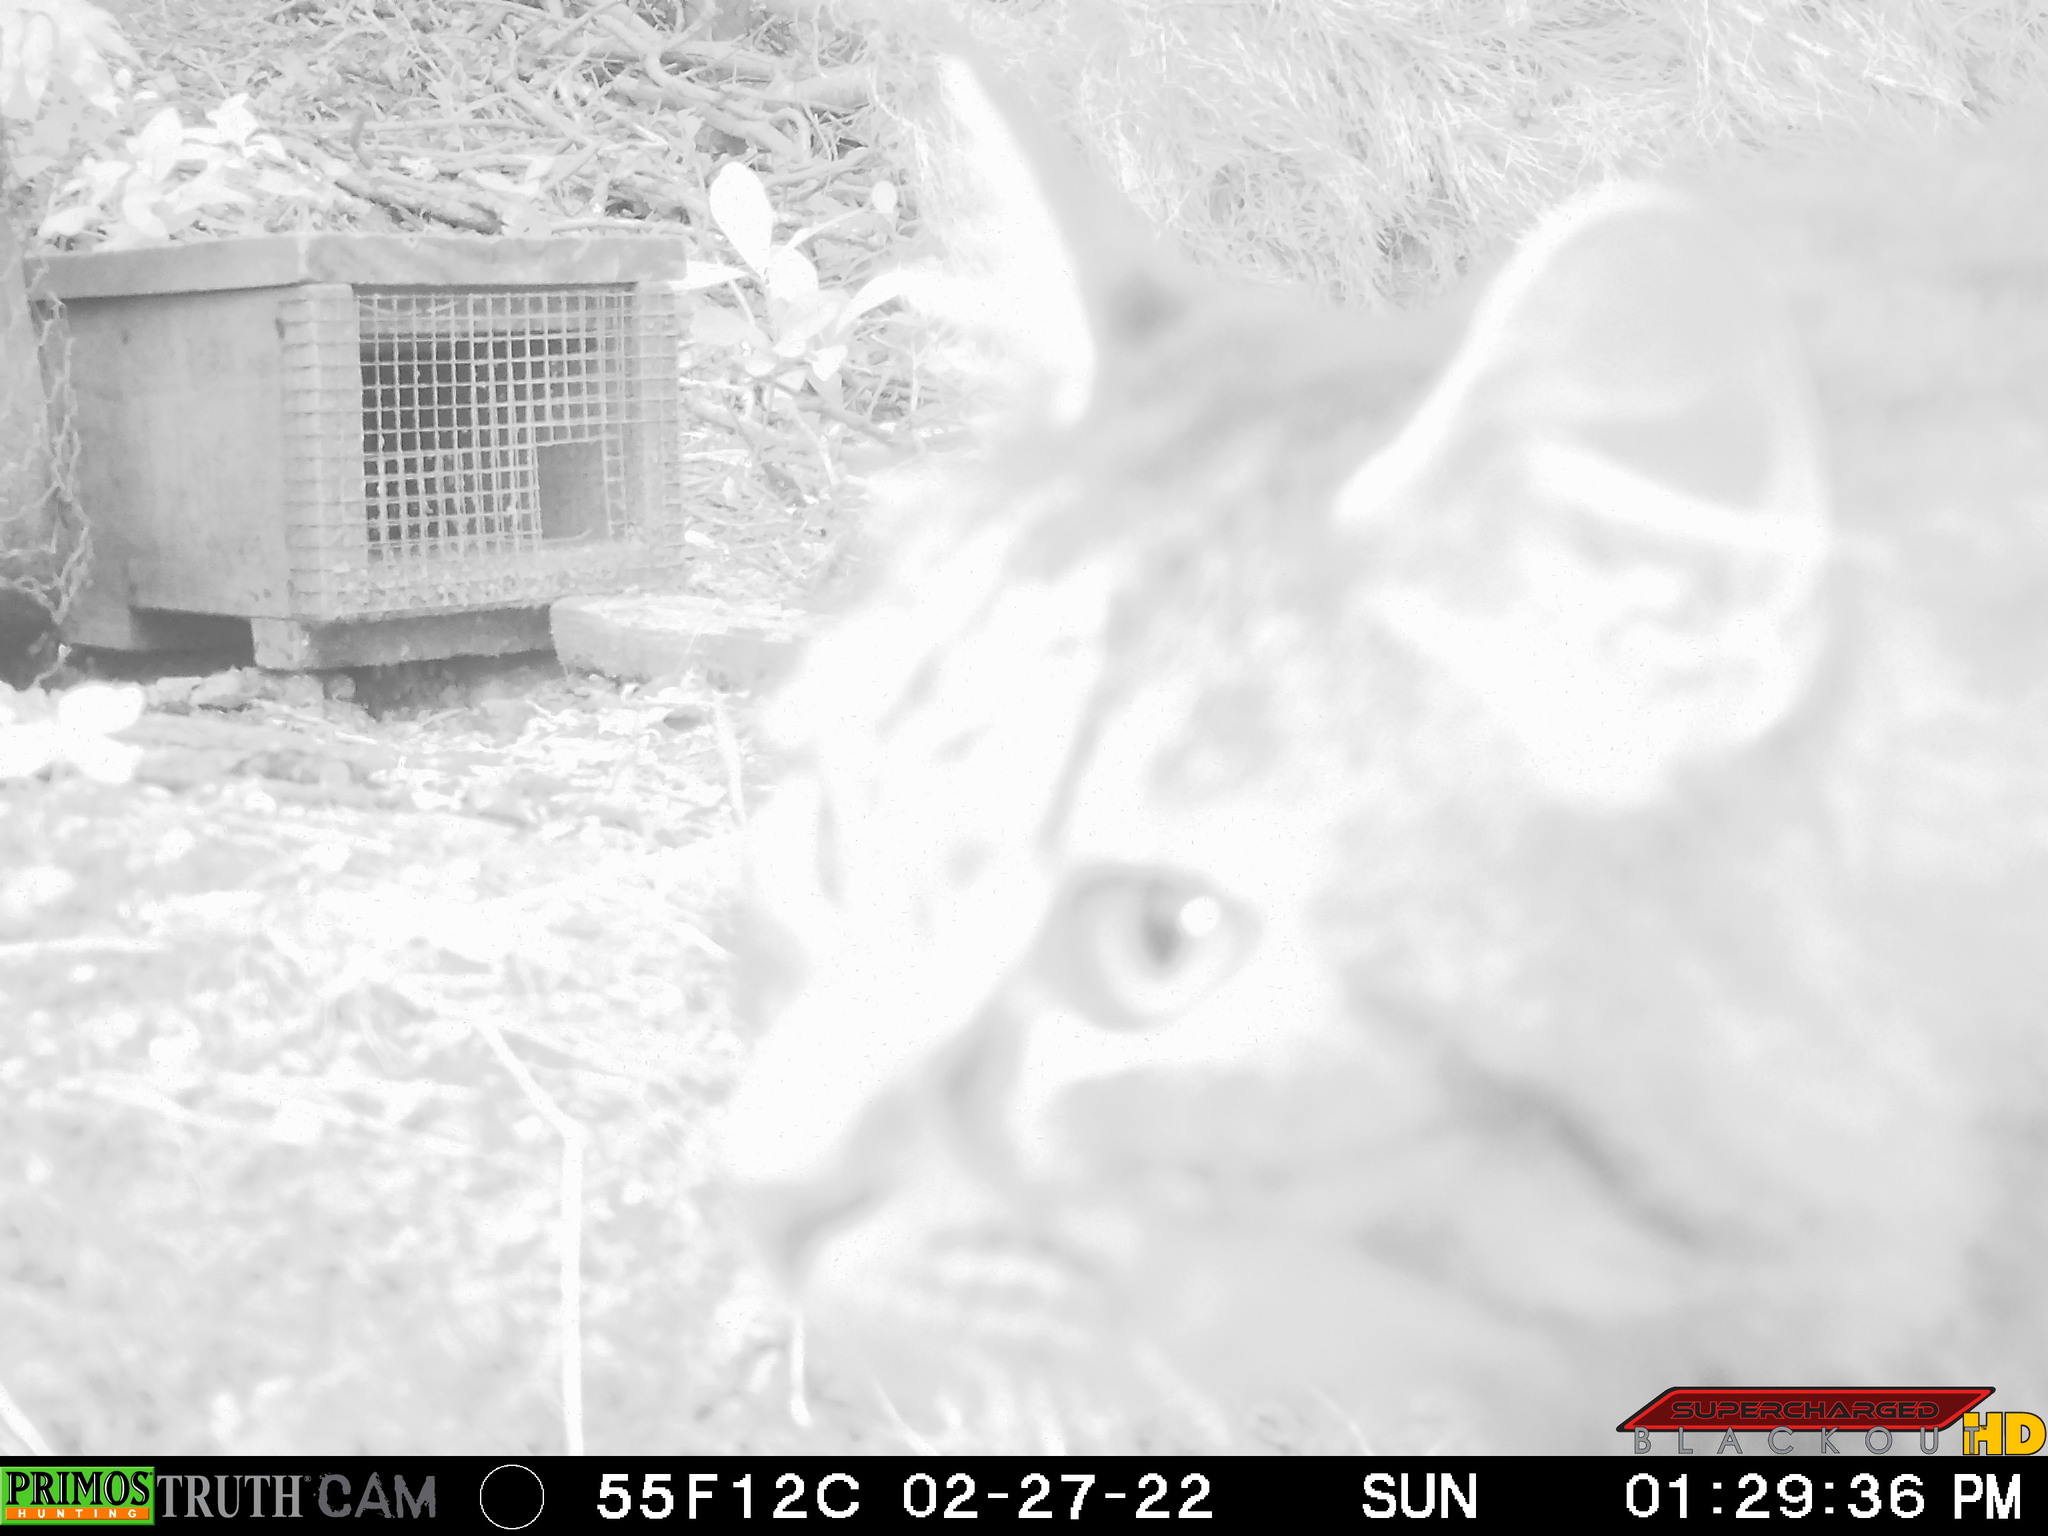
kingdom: Animalia
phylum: Chordata
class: Mammalia
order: Carnivora
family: Felidae
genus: Felis
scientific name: Felis catus
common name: Domestic cat
